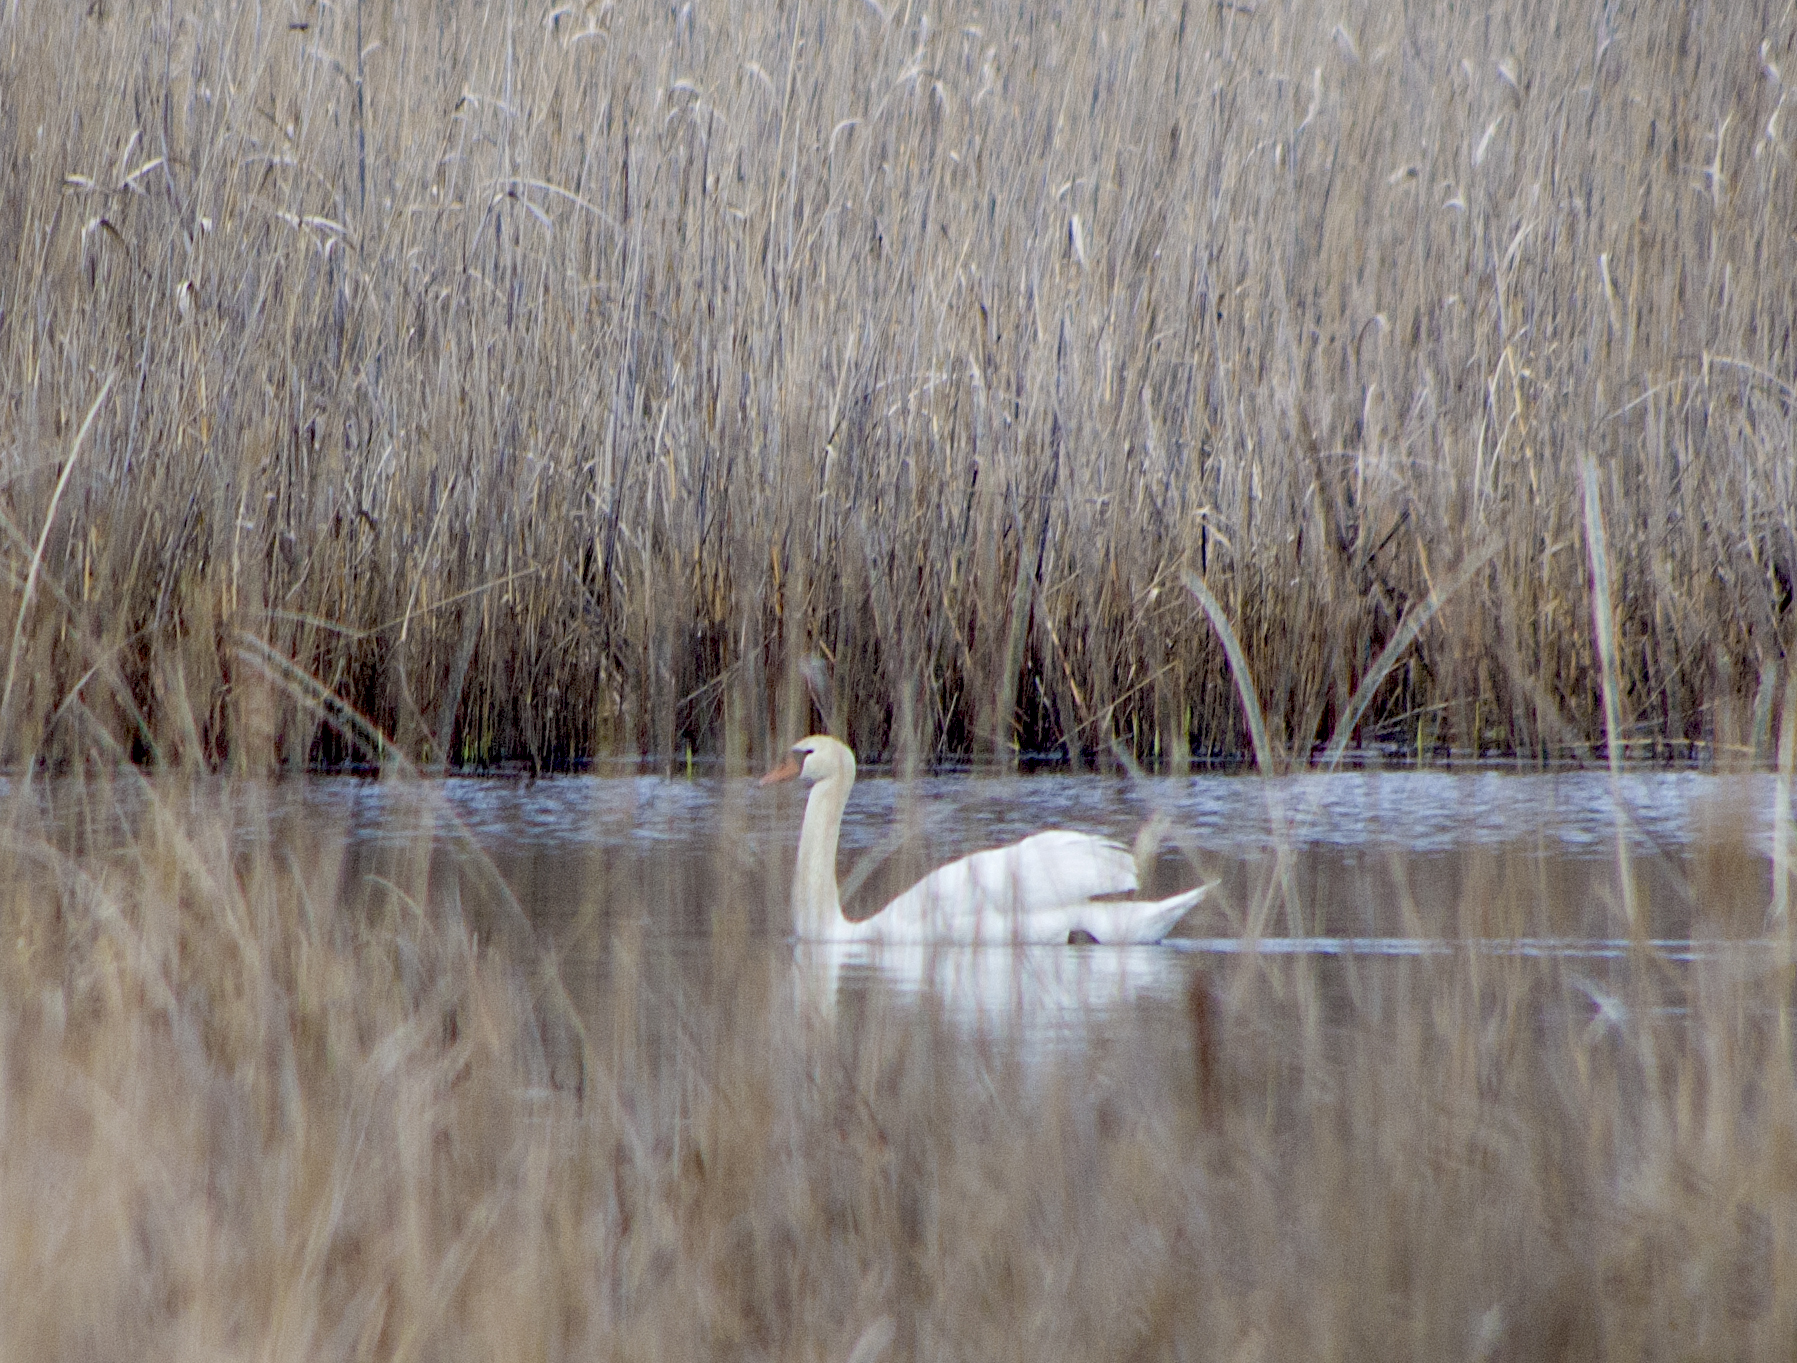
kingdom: Animalia
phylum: Chordata
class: Aves
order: Anseriformes
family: Anatidae
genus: Cygnus
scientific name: Cygnus olor
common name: Mute swan
